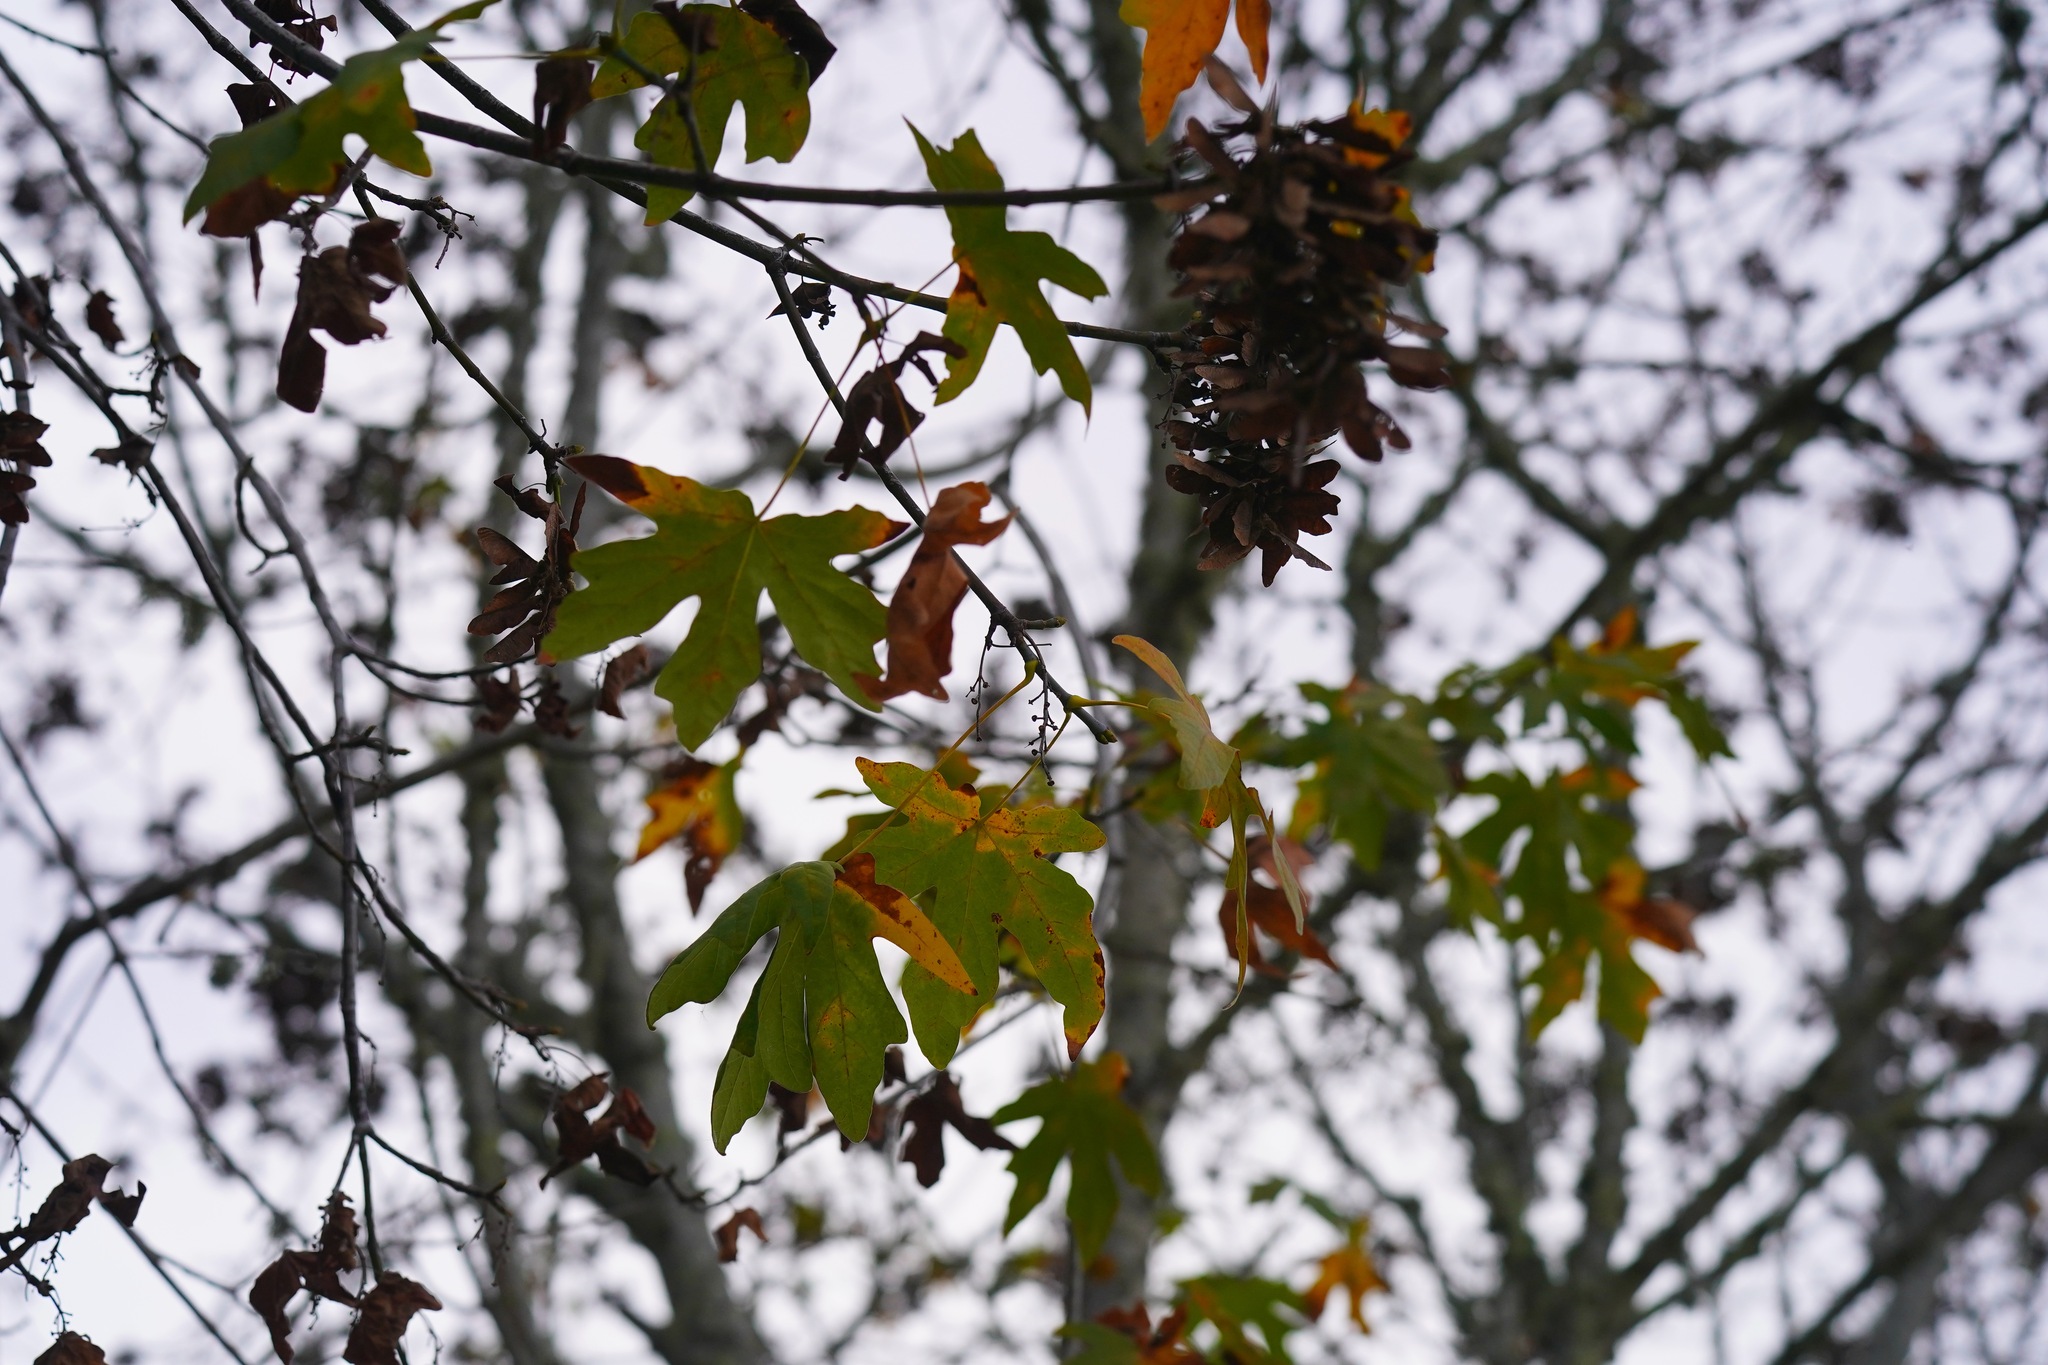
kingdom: Plantae
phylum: Tracheophyta
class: Magnoliopsida
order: Sapindales
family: Sapindaceae
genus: Acer
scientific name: Acer macrophyllum
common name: Oregon maple
